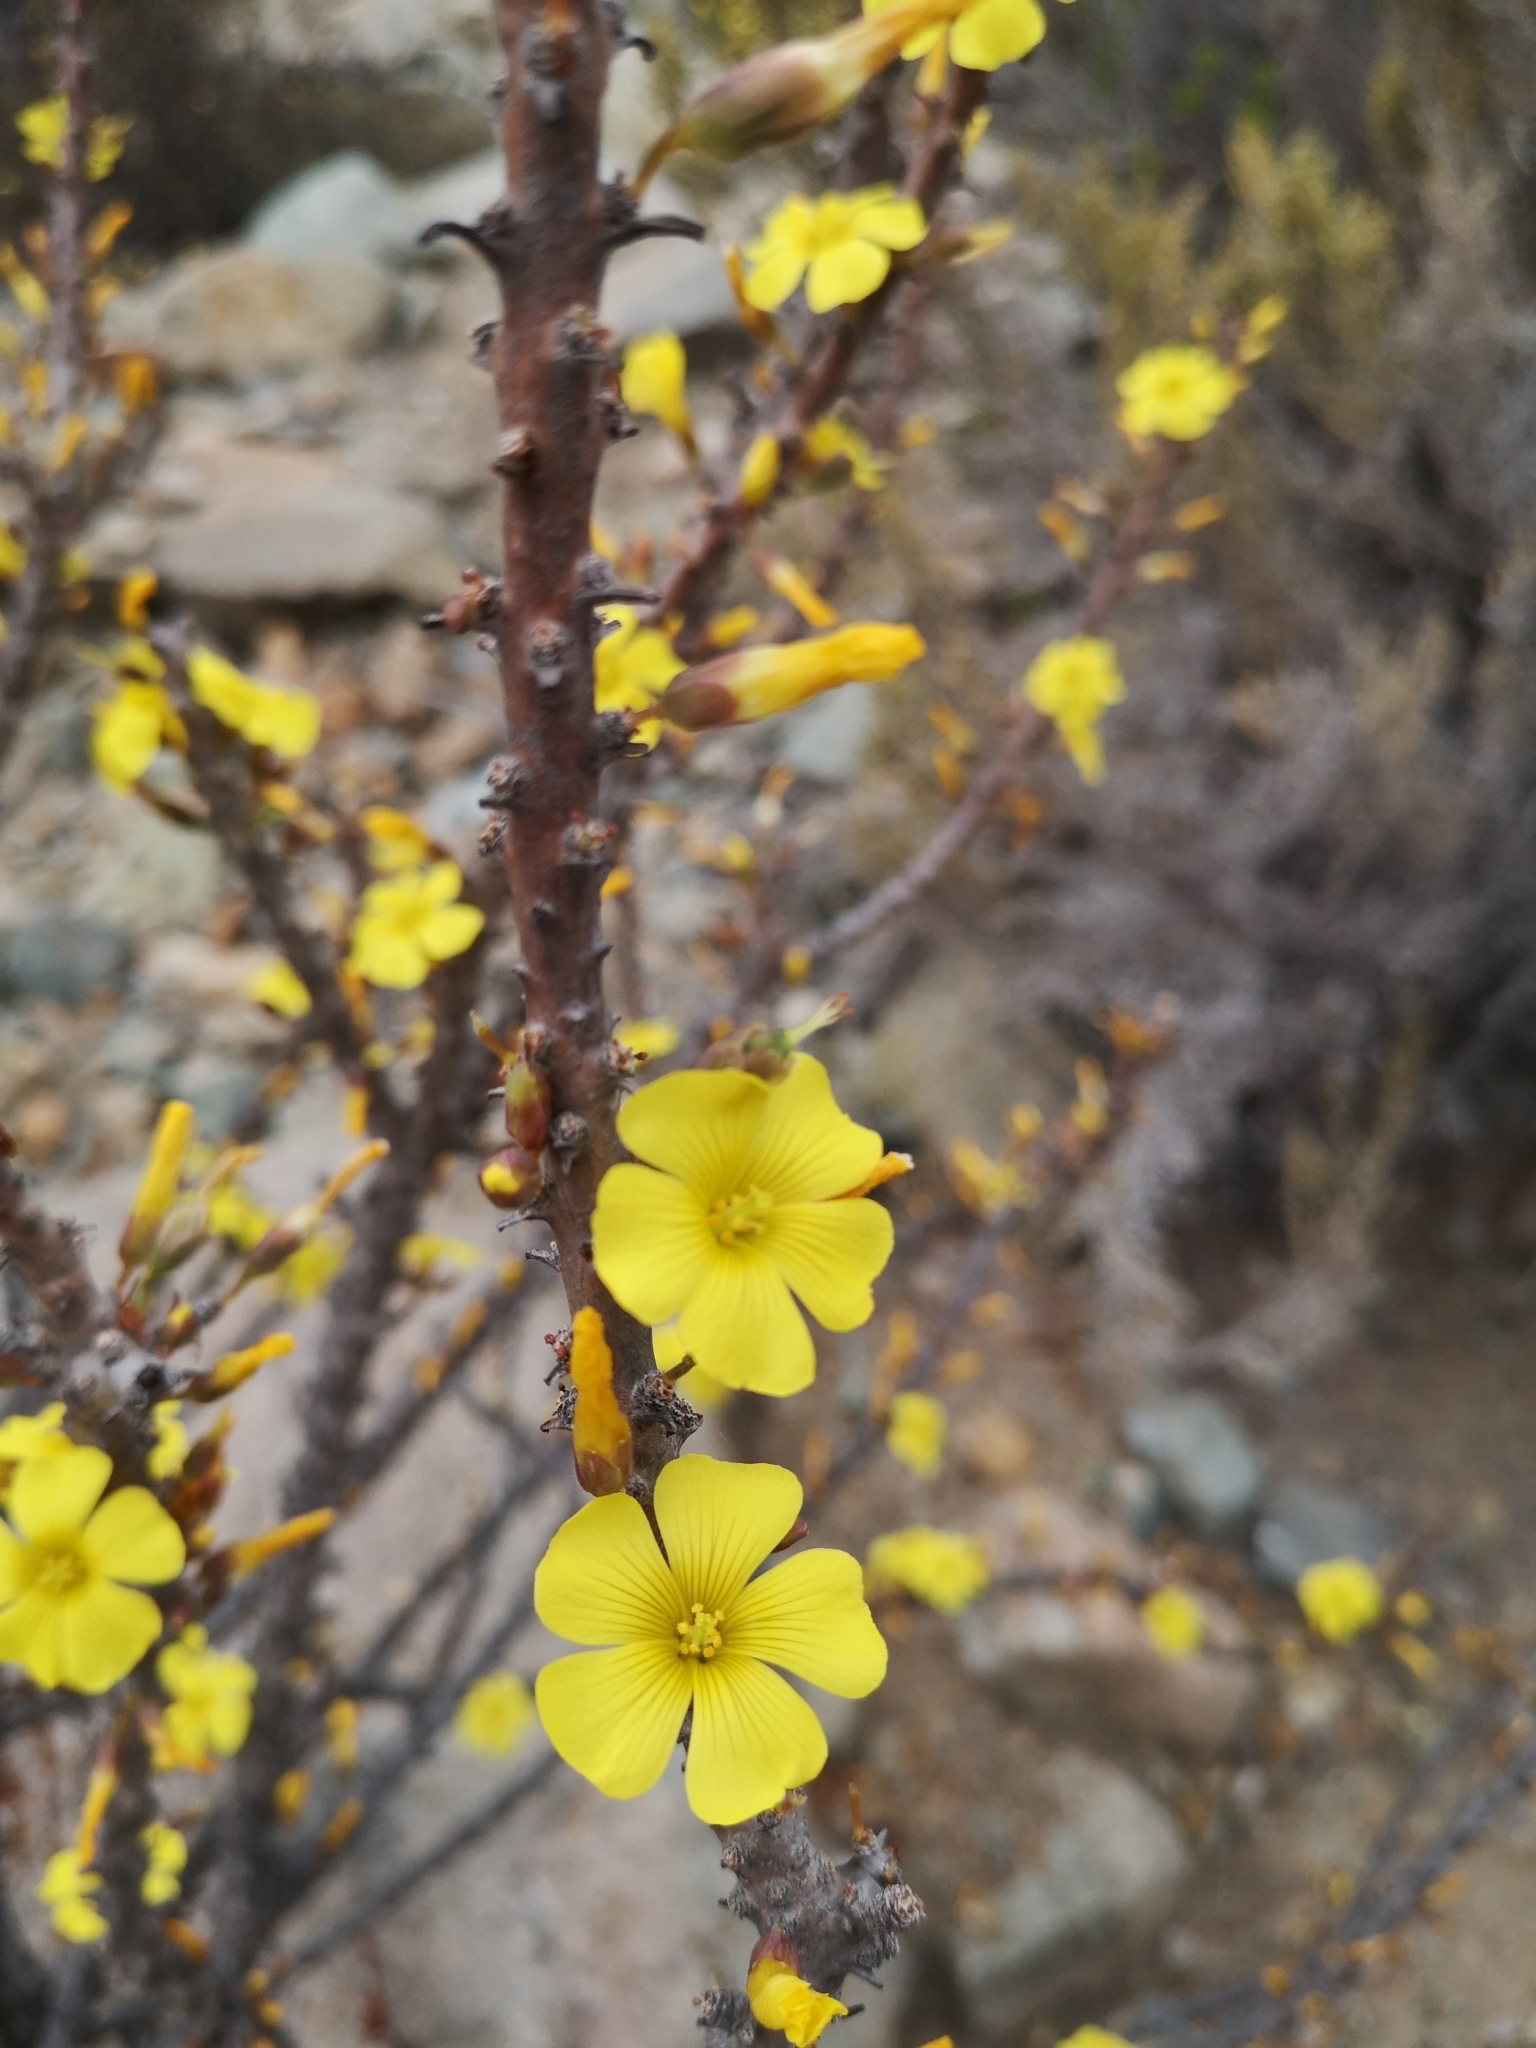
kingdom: Plantae
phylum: Tracheophyta
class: Magnoliopsida
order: Oxalidales
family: Oxalidaceae
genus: Oxalis
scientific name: Oxalis gigantea
